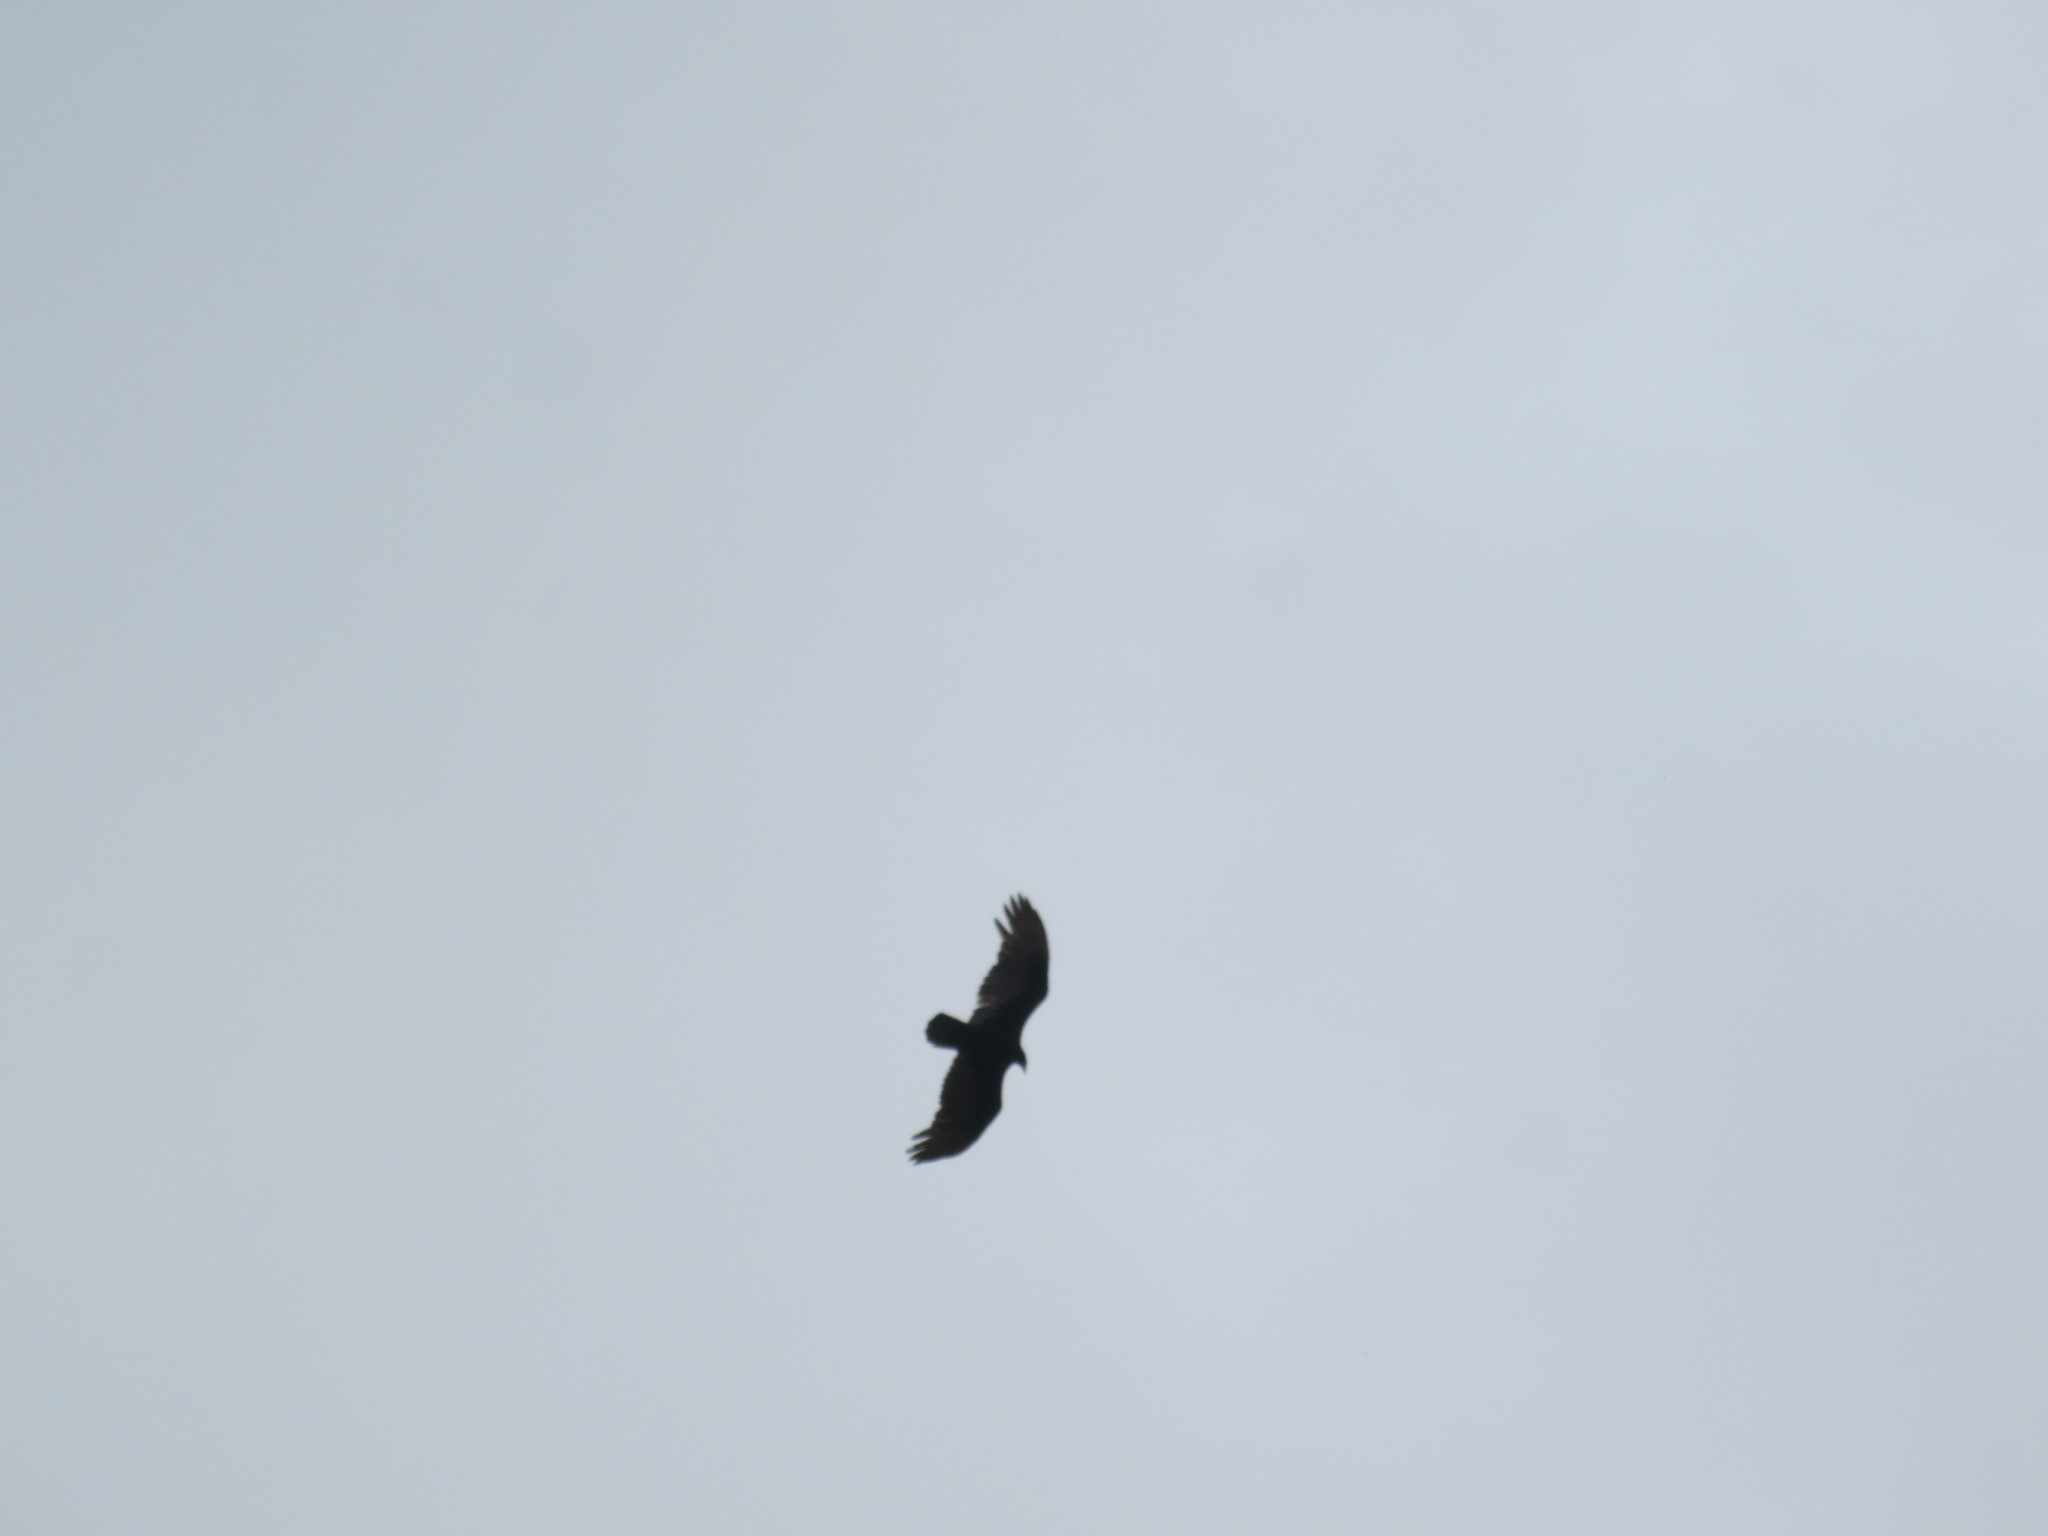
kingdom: Animalia
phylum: Chordata
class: Aves
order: Accipitriformes
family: Cathartidae
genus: Cathartes
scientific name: Cathartes aura
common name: Turkey vulture
